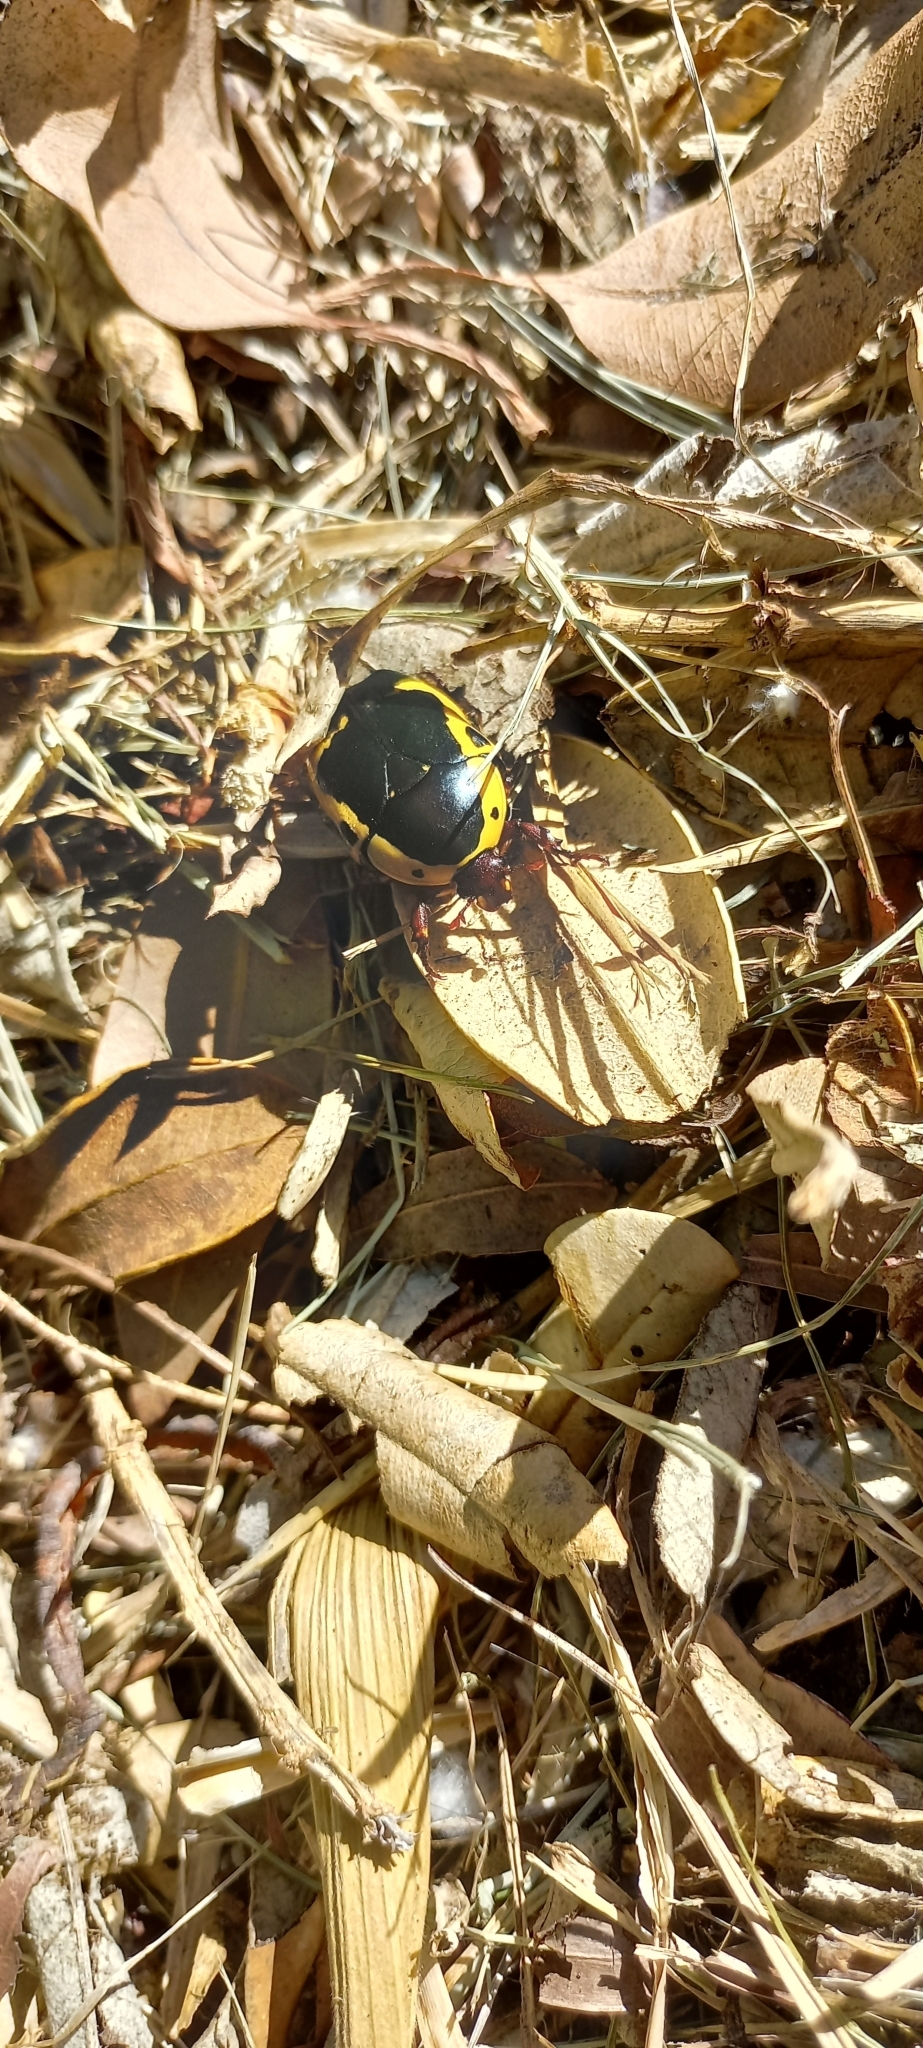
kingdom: Animalia
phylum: Arthropoda
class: Insecta
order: Coleoptera
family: Scarabaeidae
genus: Pachnoda
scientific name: Pachnoda sinuata
